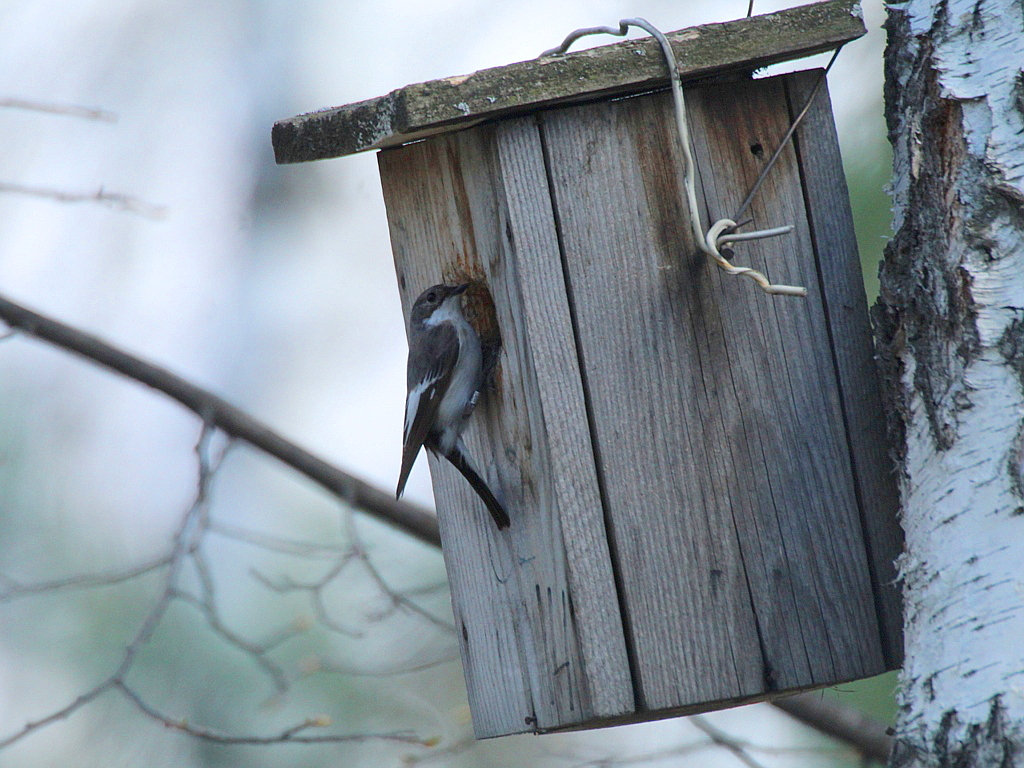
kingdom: Animalia
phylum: Chordata
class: Aves
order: Passeriformes
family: Muscicapidae
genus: Ficedula
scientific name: Ficedula hypoleuca
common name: European pied flycatcher
